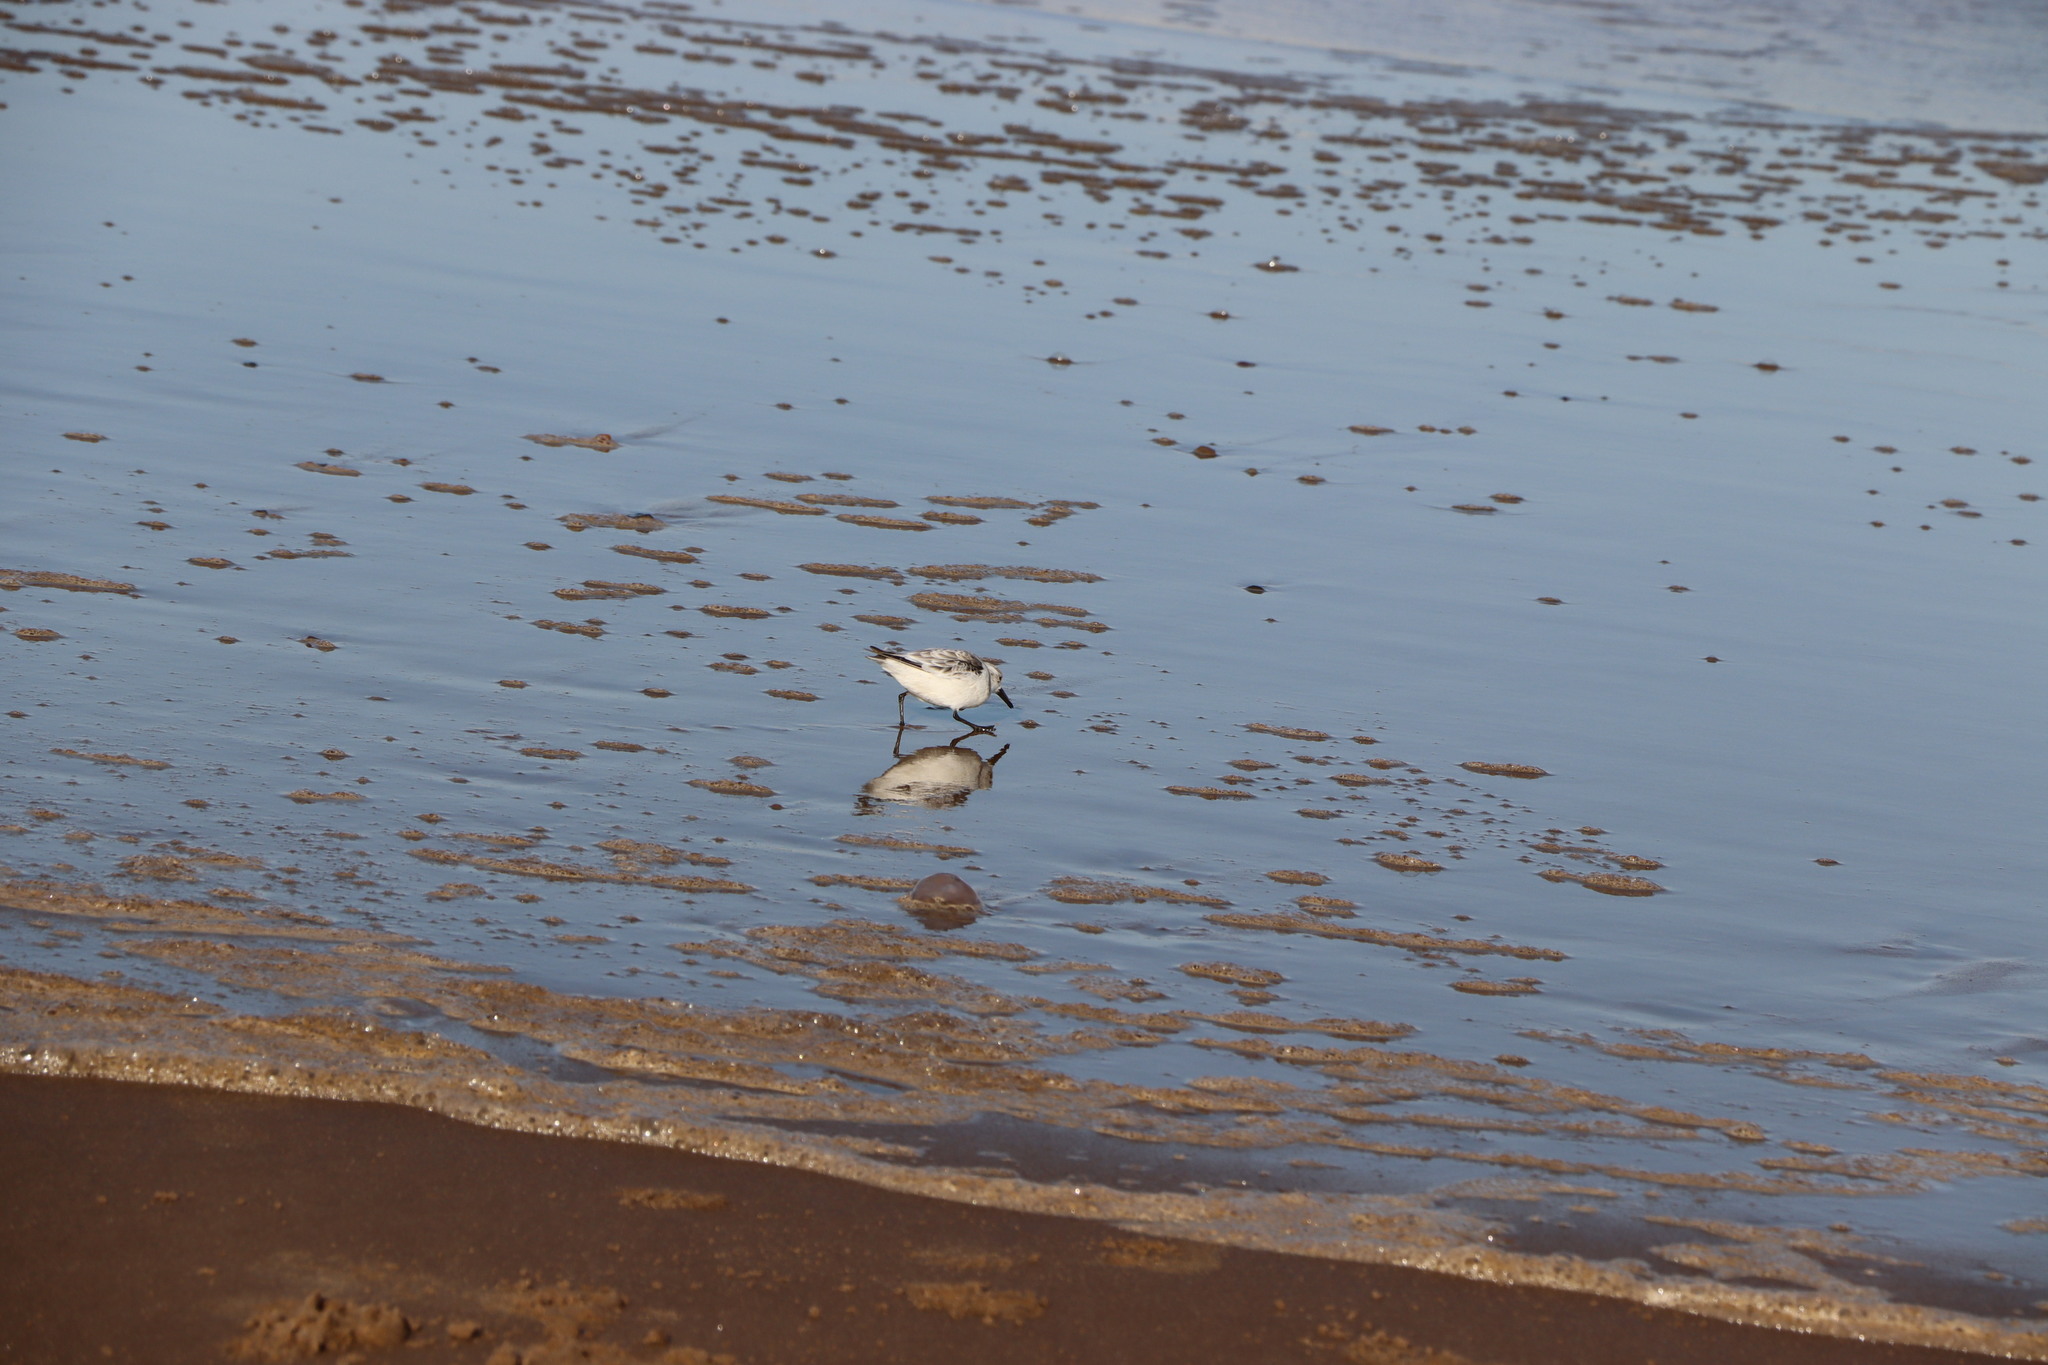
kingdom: Animalia
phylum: Chordata
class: Aves
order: Charadriiformes
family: Scolopacidae
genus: Calidris
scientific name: Calidris alba
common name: Sanderling
